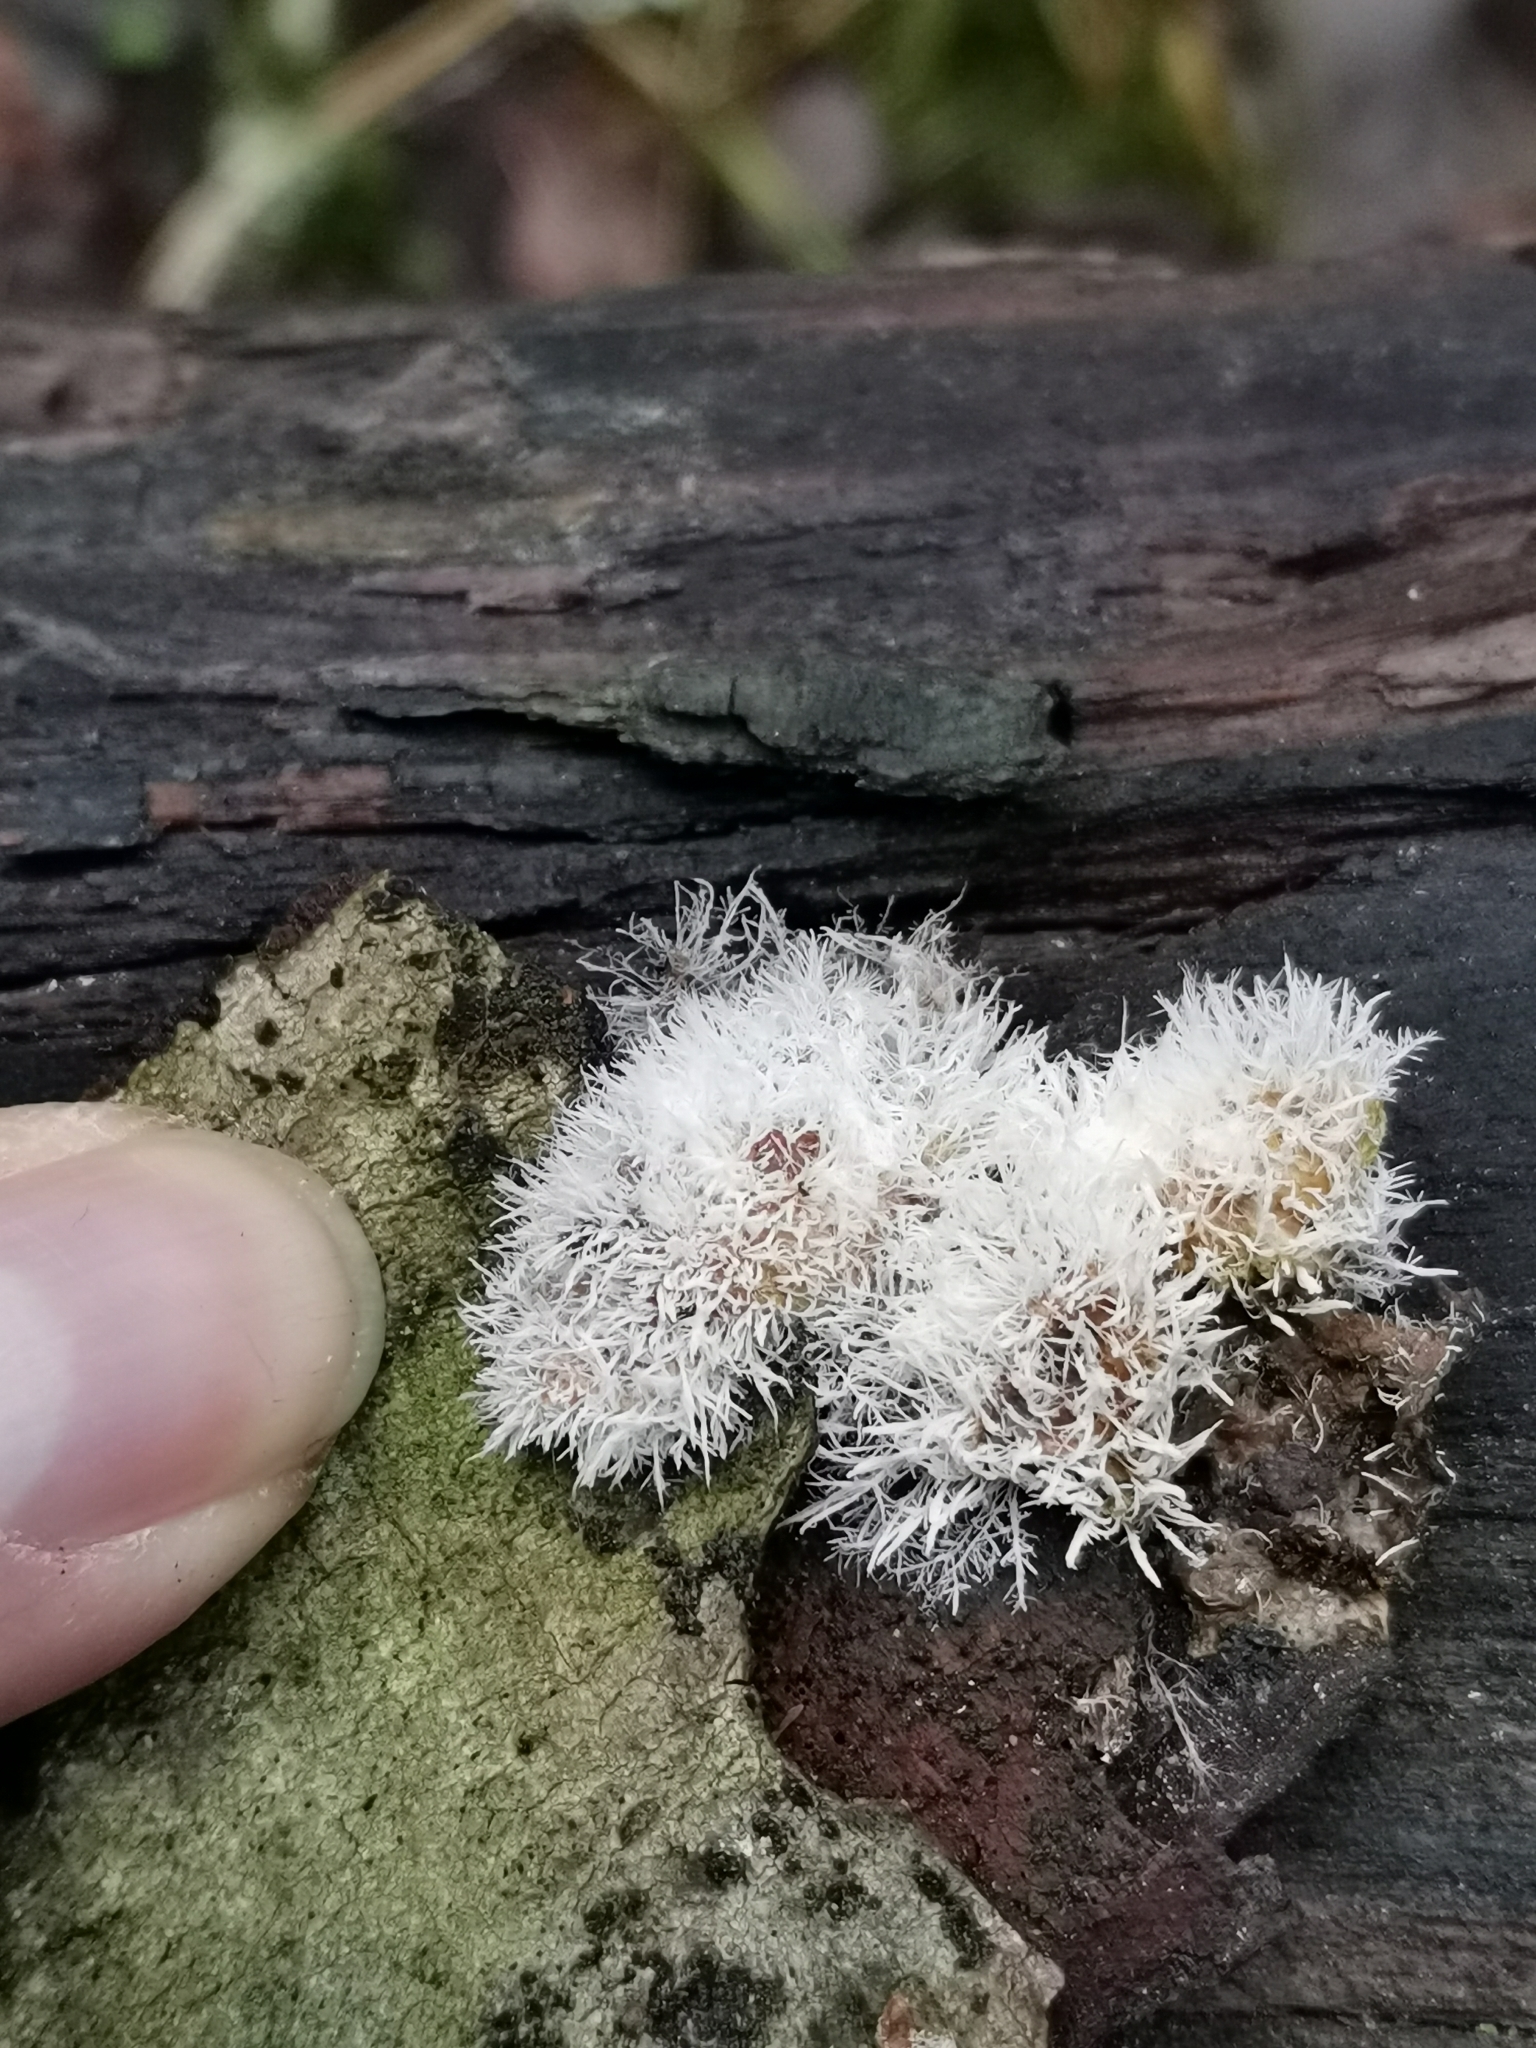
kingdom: Fungi
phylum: Ascomycota
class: Sordariomycetes
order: Hypocreales
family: Tilachlidiaceae
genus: Tilachlidium
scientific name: Tilachlidium brachiatum
